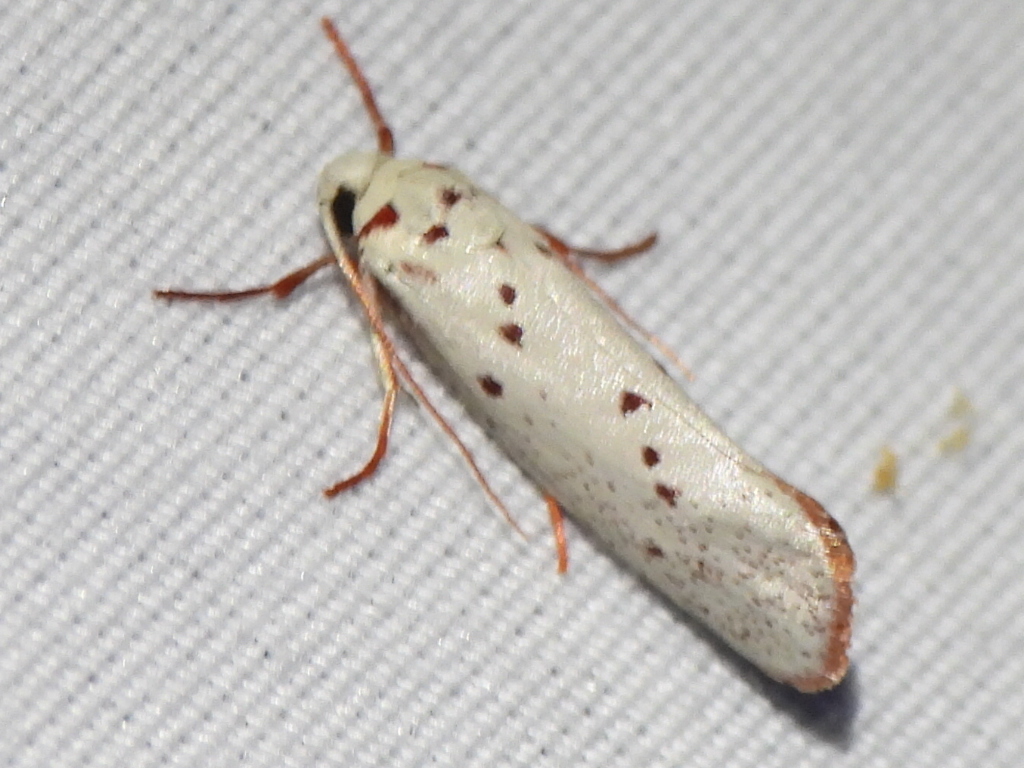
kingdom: Animalia
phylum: Arthropoda
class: Insecta
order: Lepidoptera
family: Lacturidae
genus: Lactura
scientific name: Lactura
